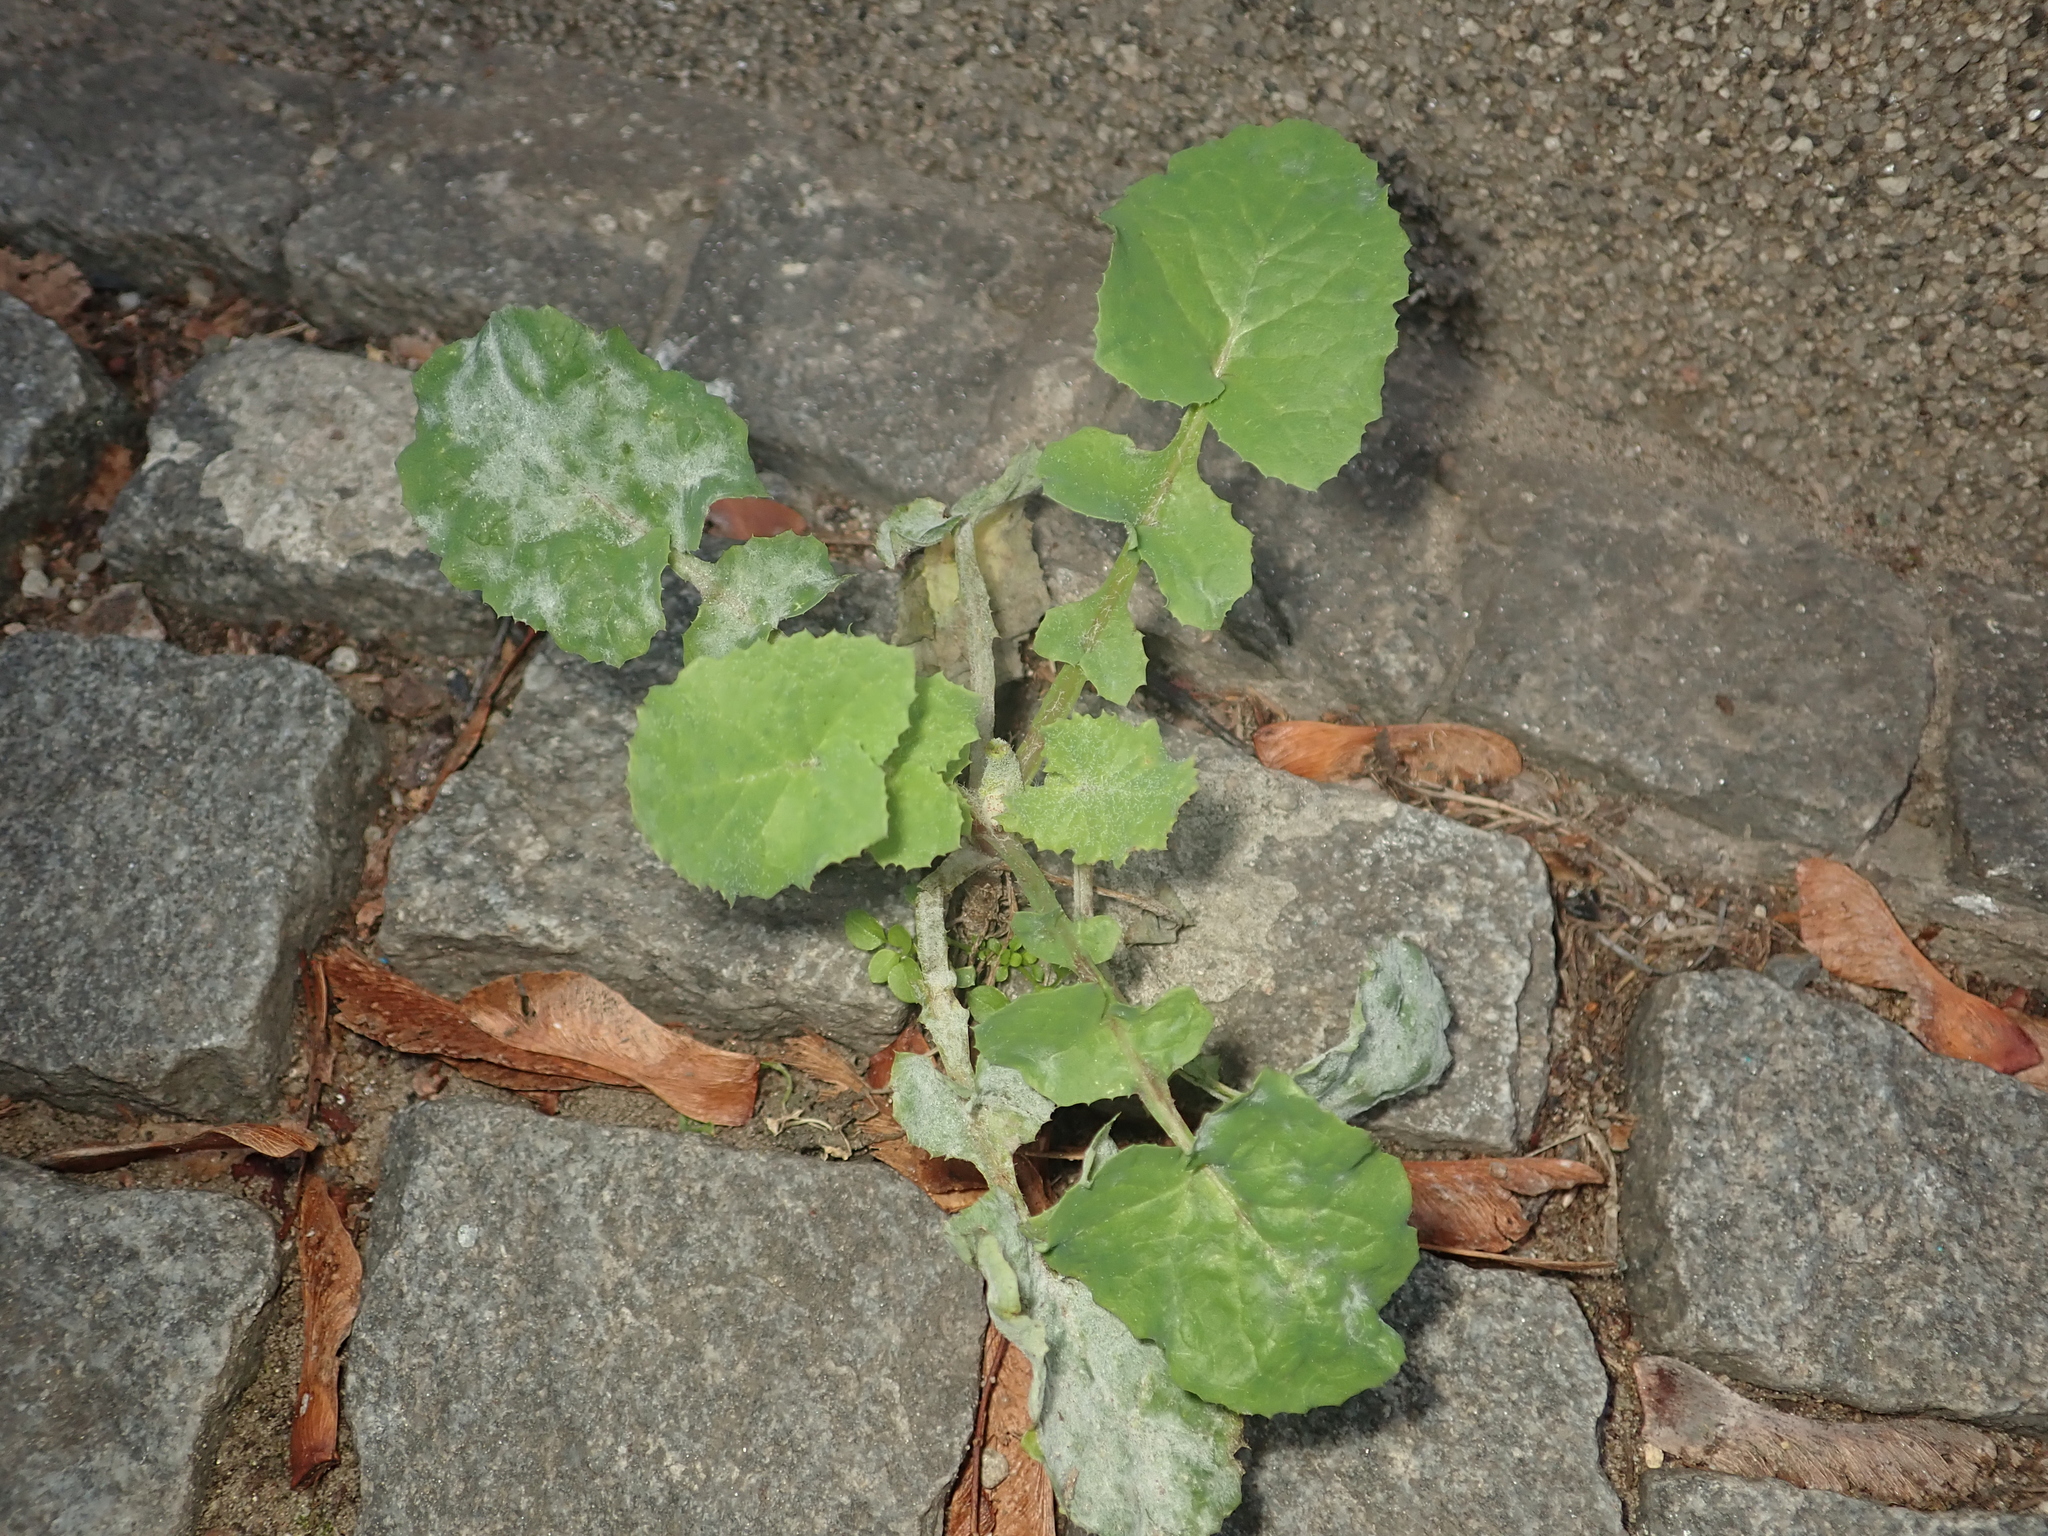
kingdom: Plantae
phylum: Tracheophyta
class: Magnoliopsida
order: Asterales
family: Asteraceae
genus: Sonchus
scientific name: Sonchus oleraceus
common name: Common sowthistle
